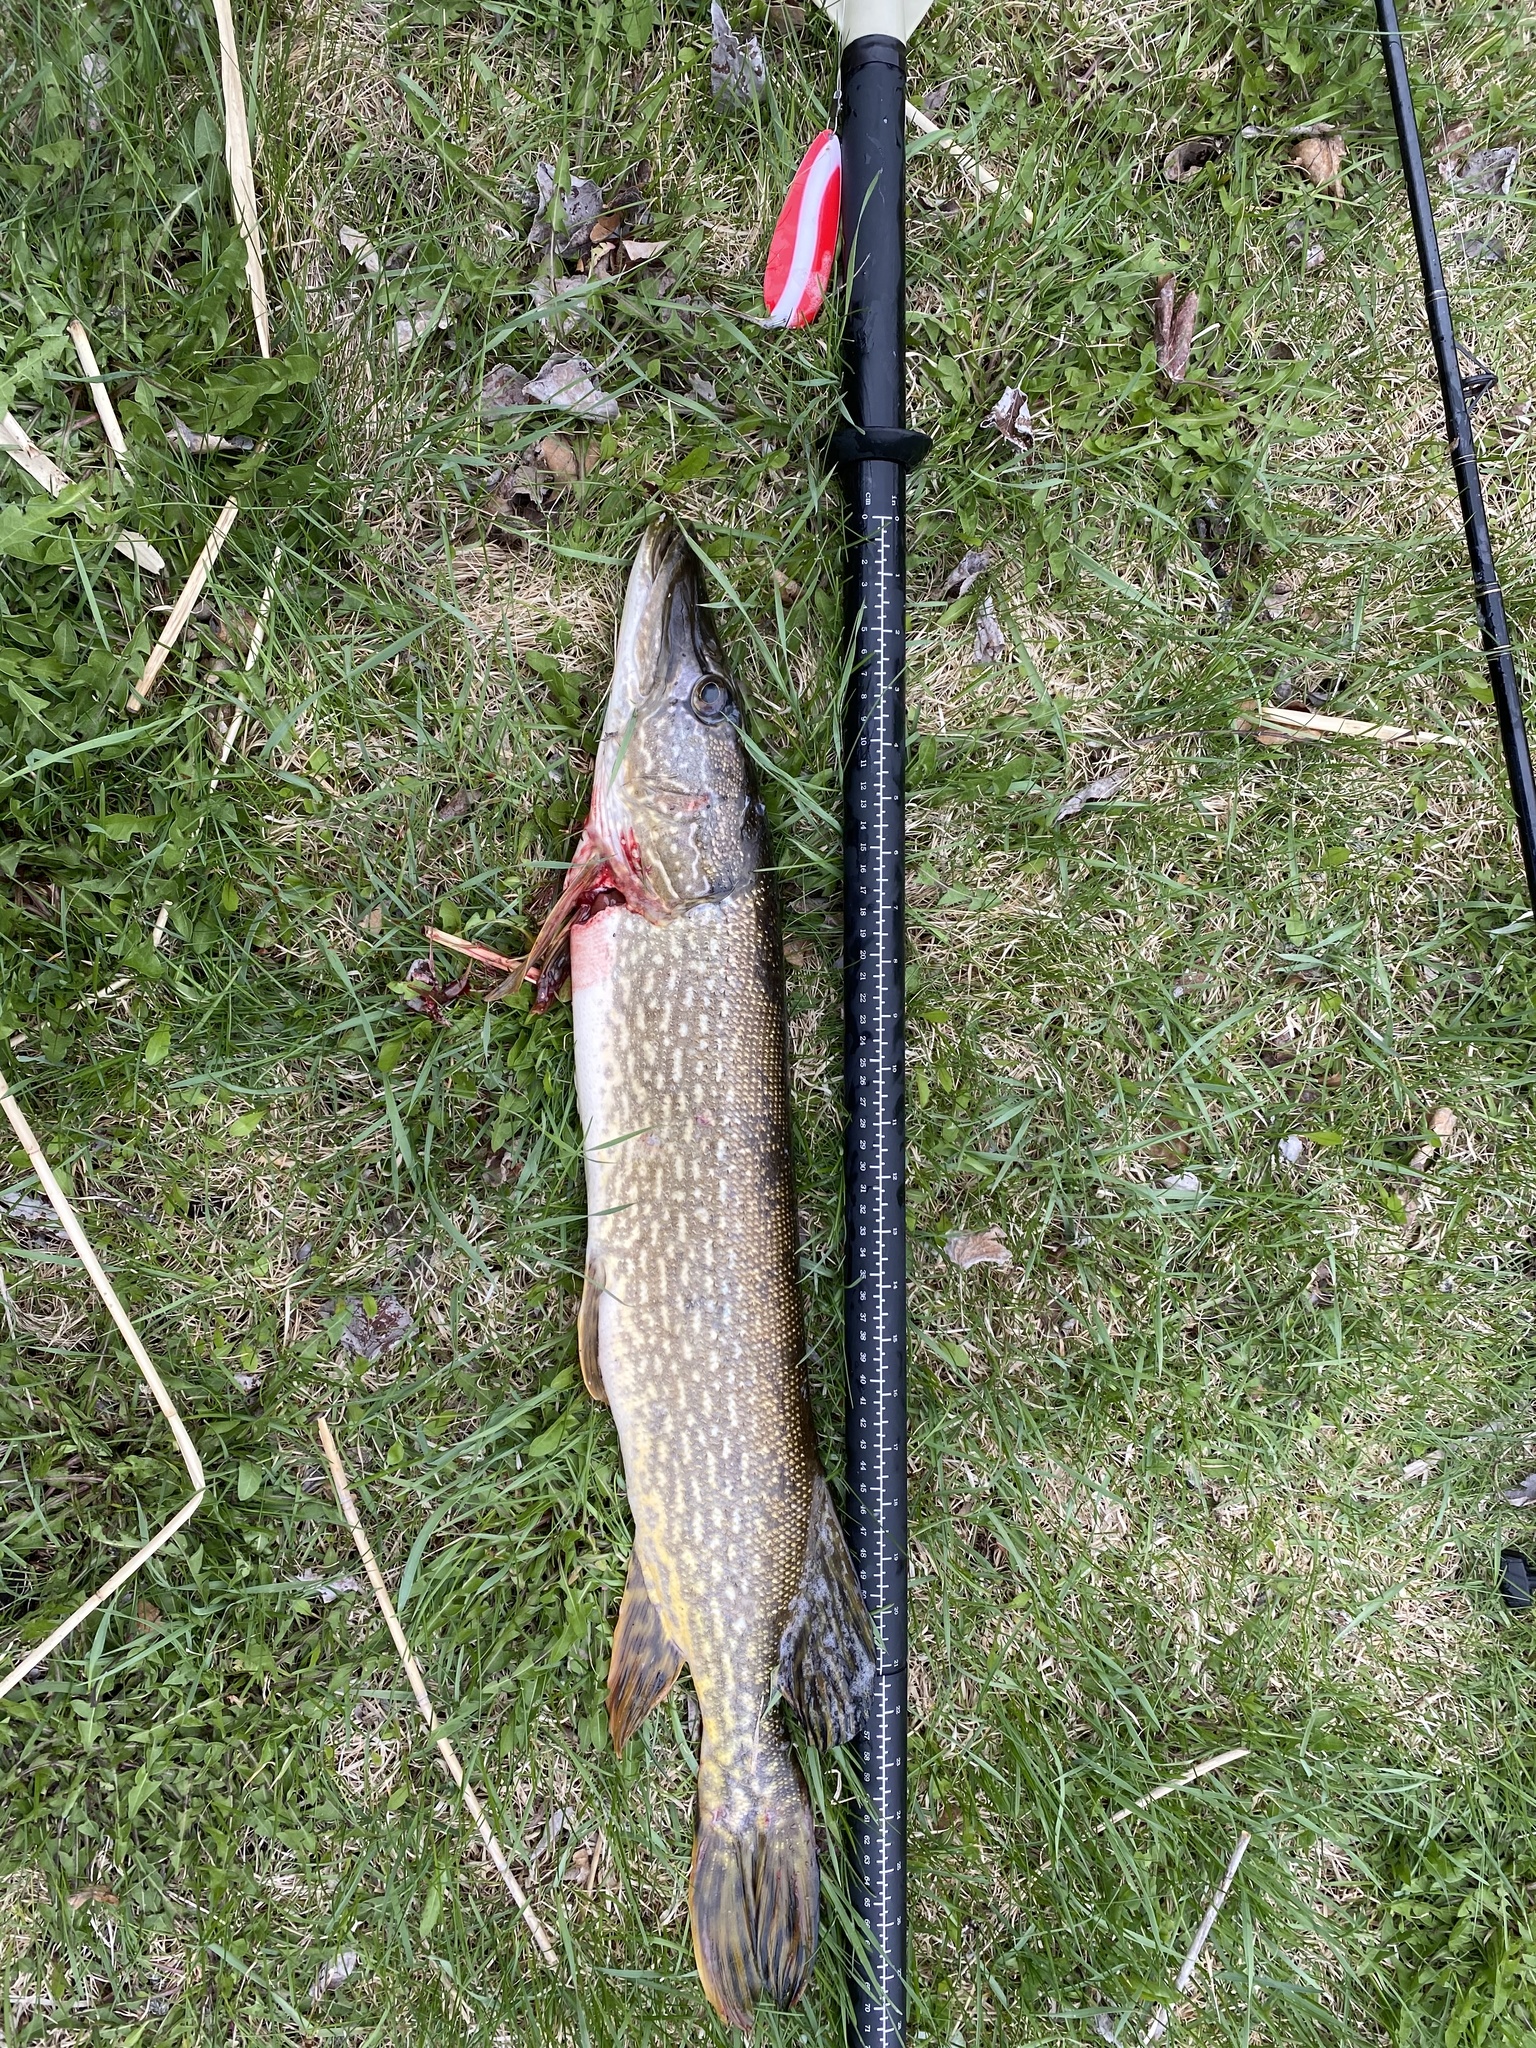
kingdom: Animalia
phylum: Chordata
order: Esociformes
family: Esocidae
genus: Esox
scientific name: Esox lucius
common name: Northern pike
